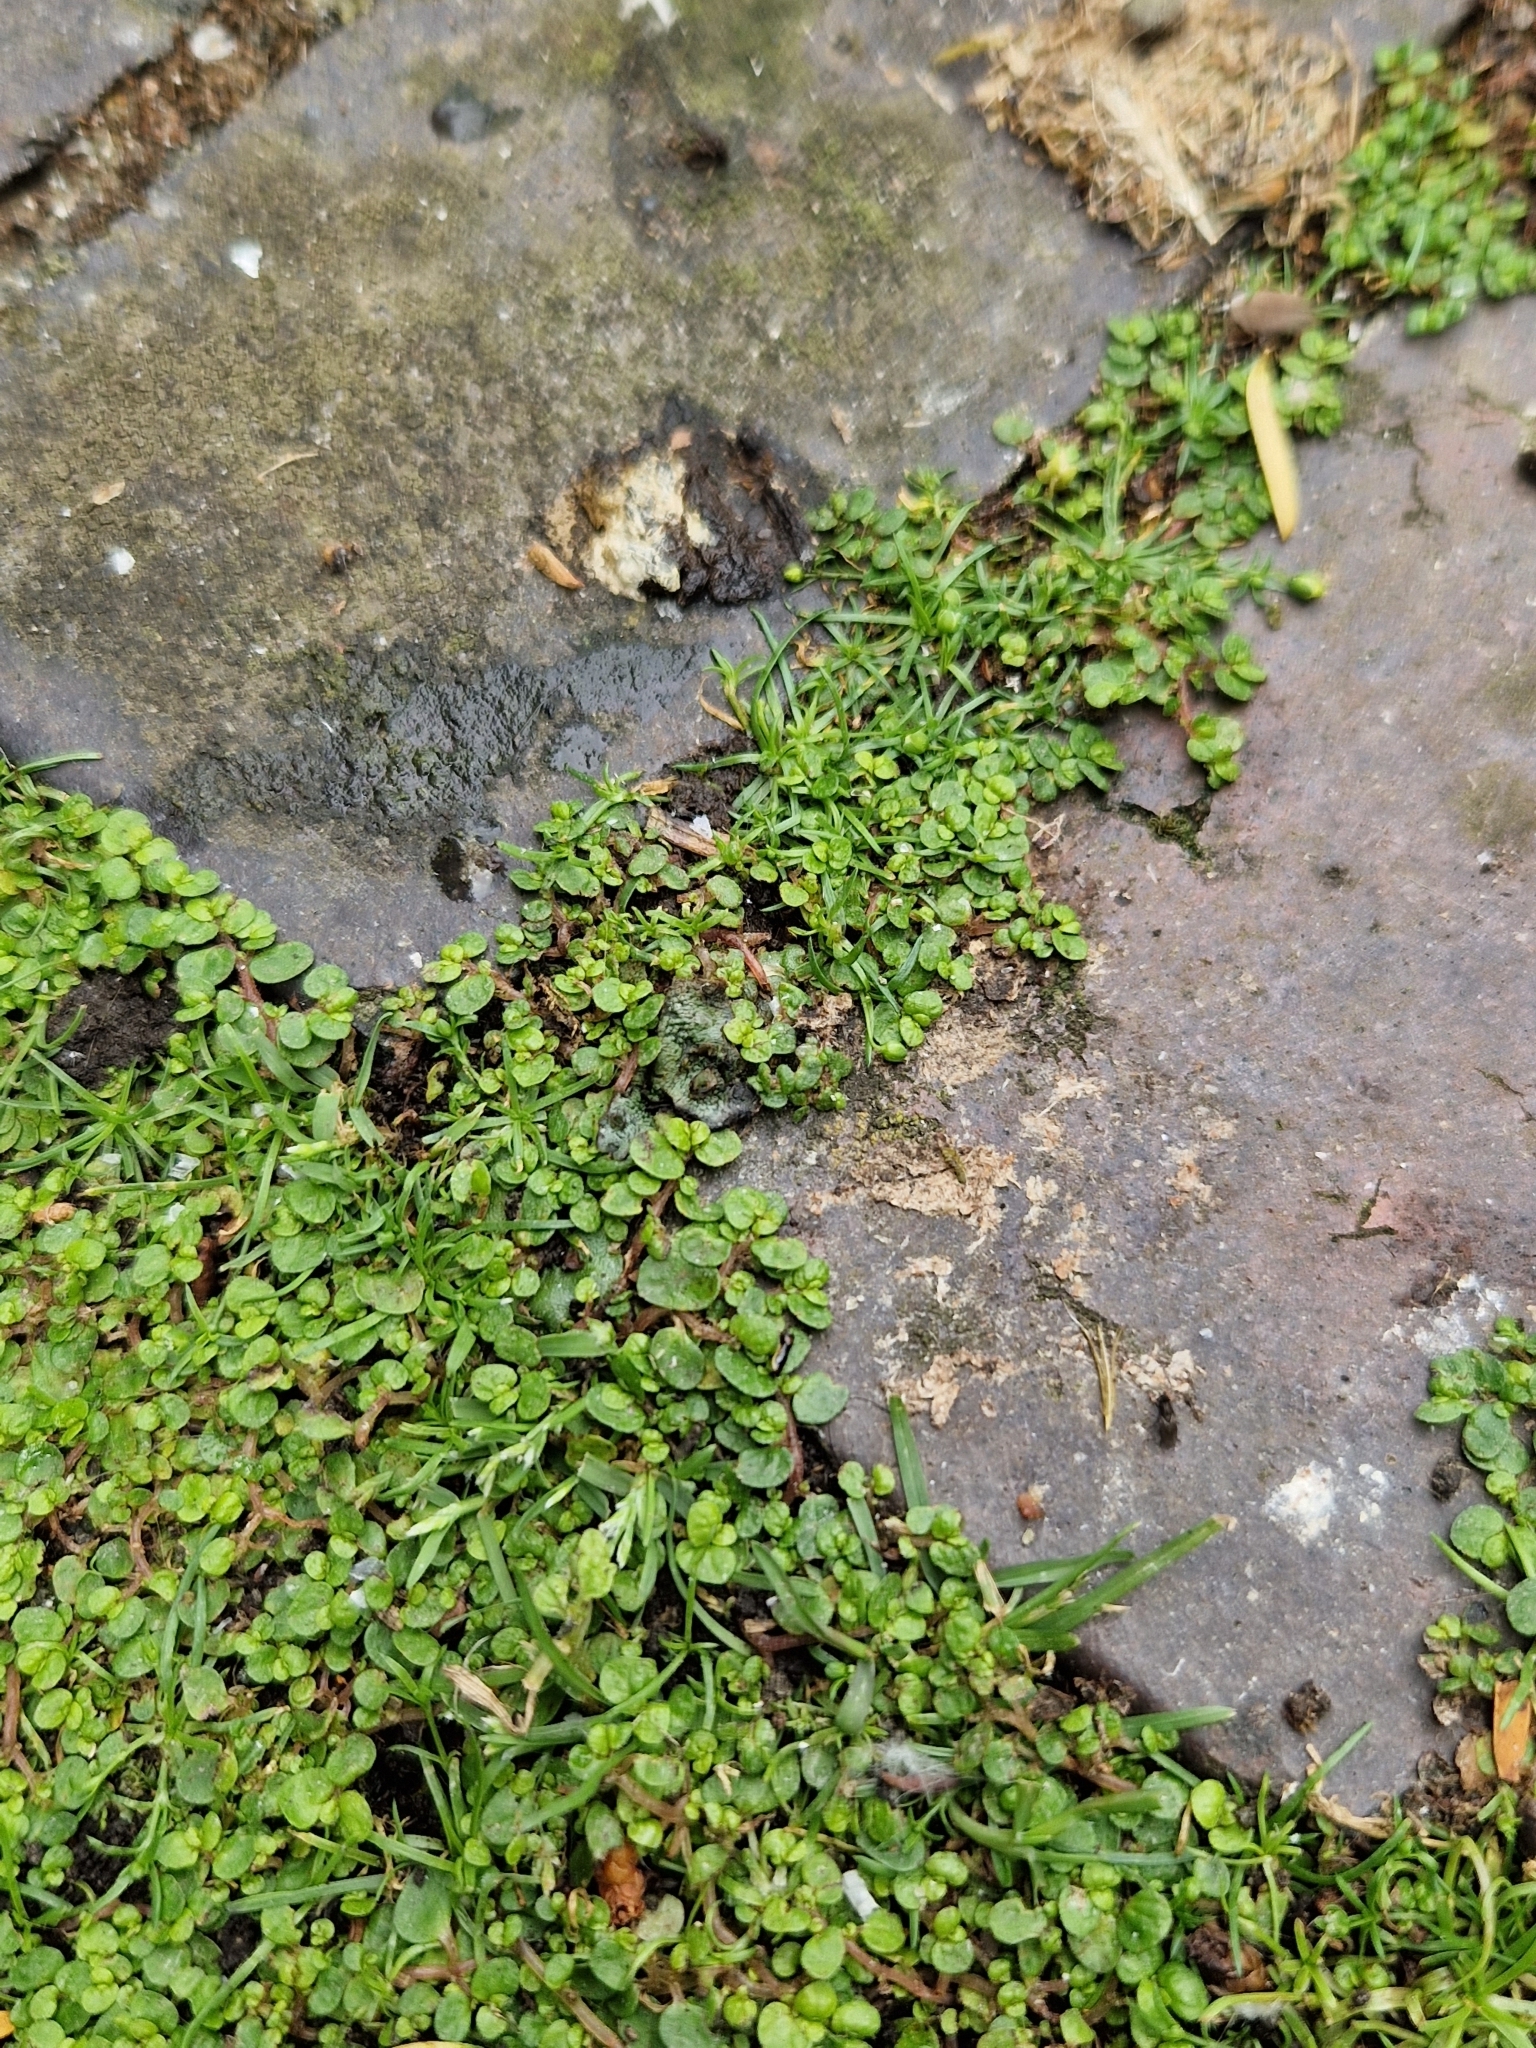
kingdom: Plantae
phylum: Tracheophyta
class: Magnoliopsida
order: Rosales
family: Urticaceae
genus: Soleirolia
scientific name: Soleirolia soleirolii
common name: Mind-your-own-business
